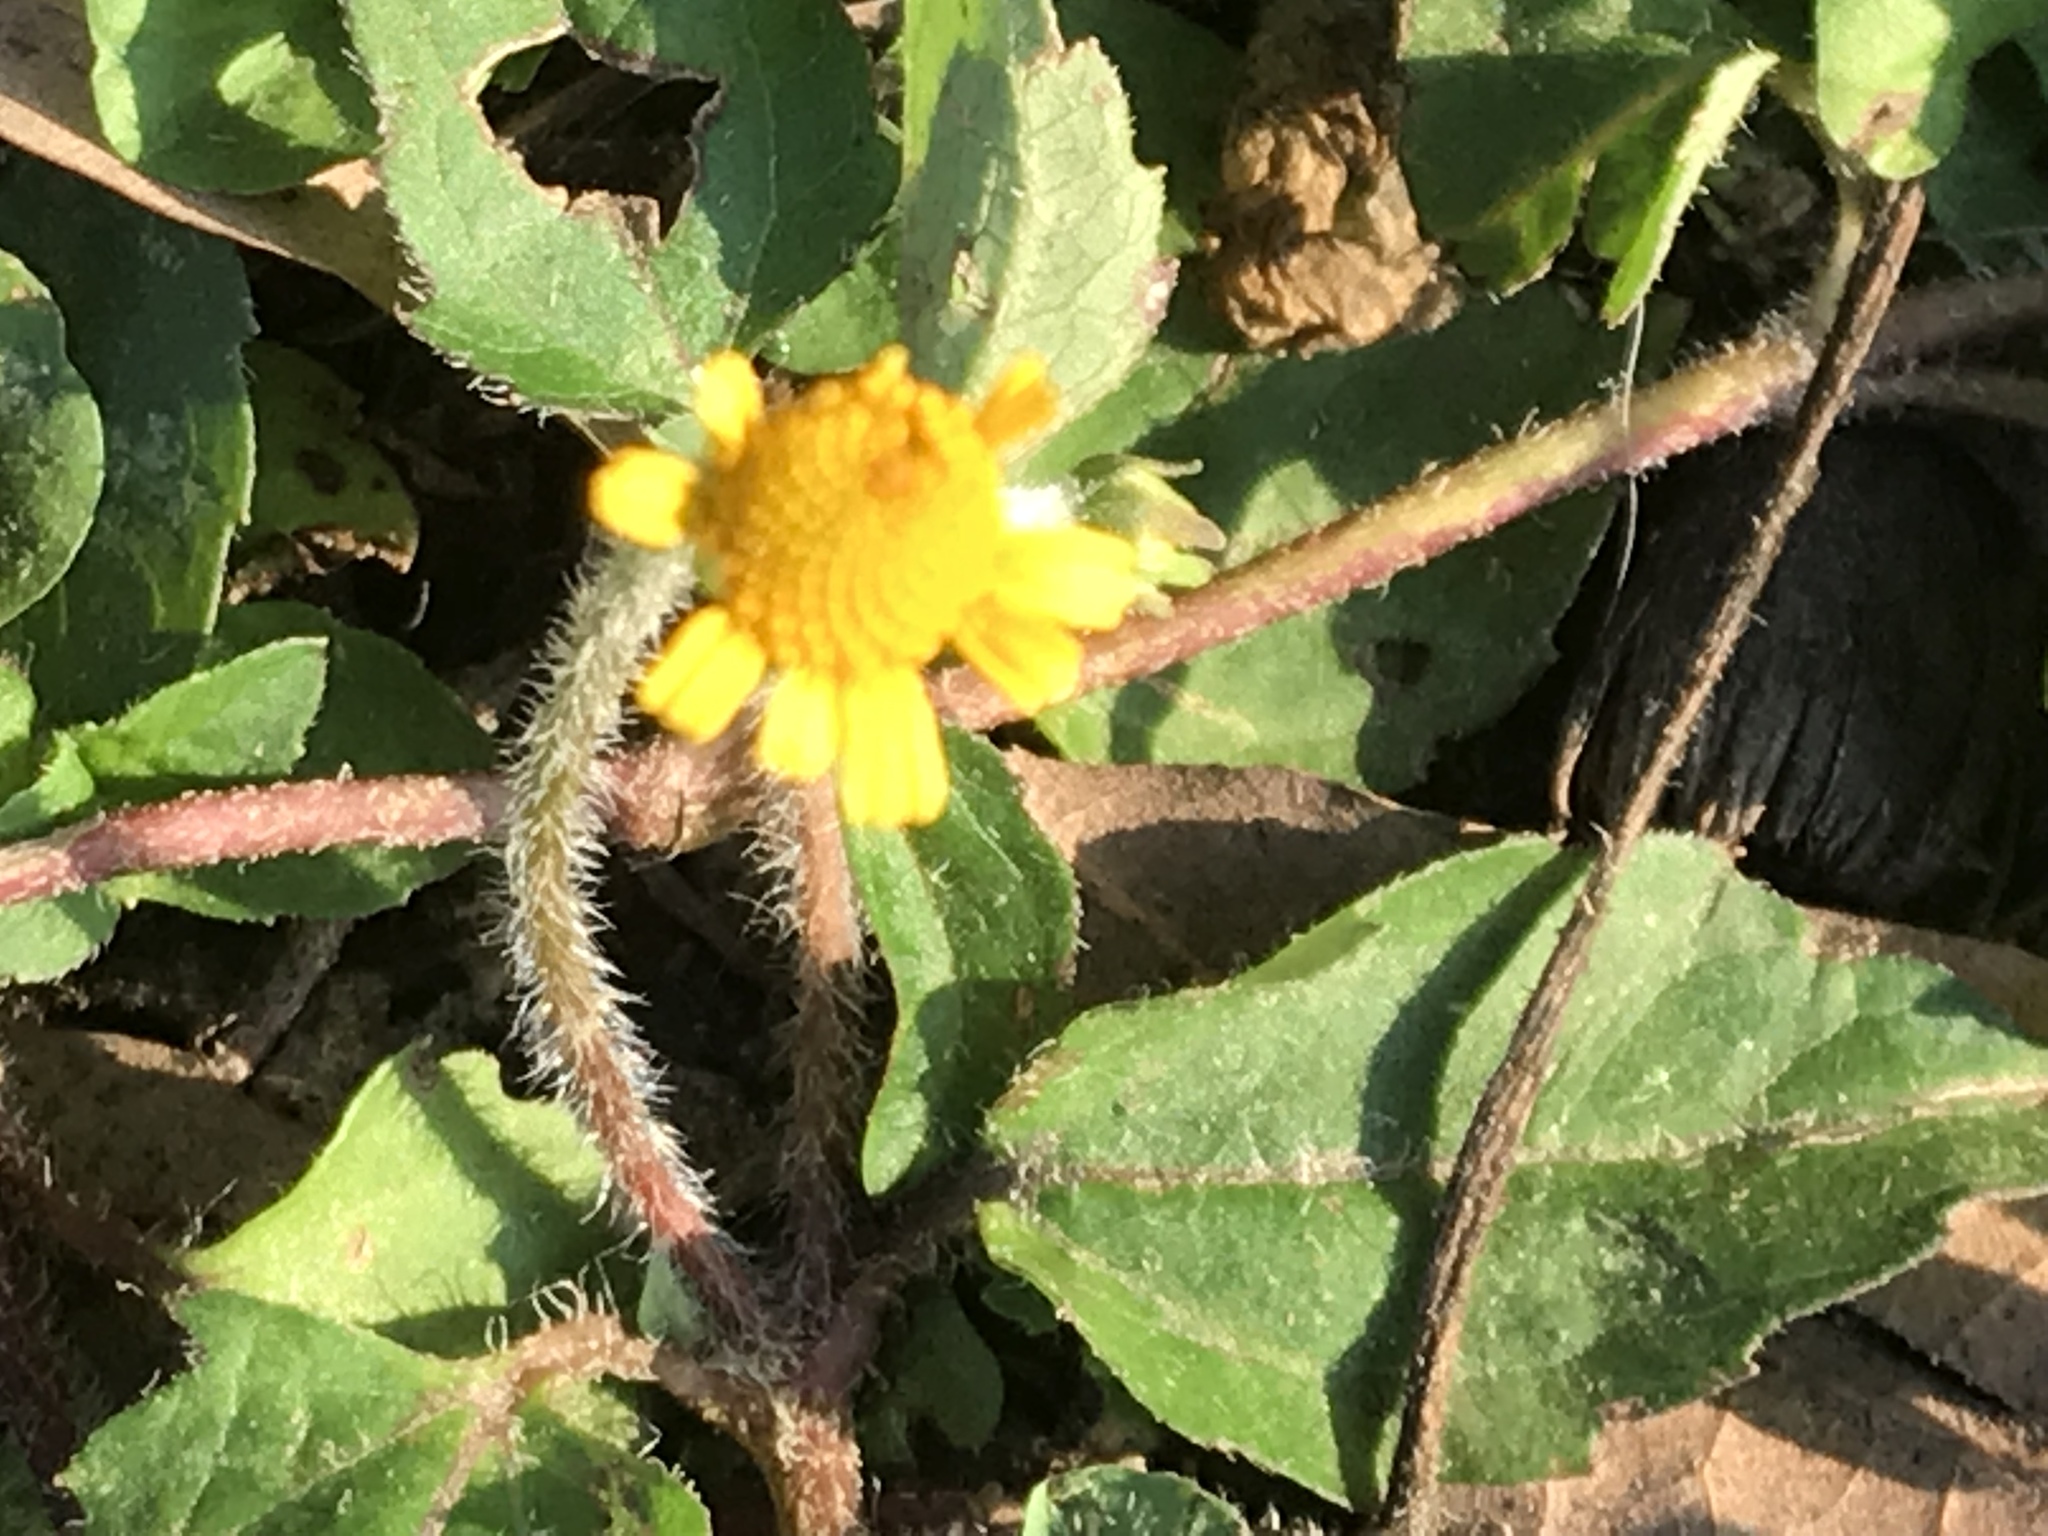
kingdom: Plantae
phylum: Tracheophyta
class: Magnoliopsida
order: Asterales
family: Asteraceae
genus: Acmella
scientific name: Acmella repens
